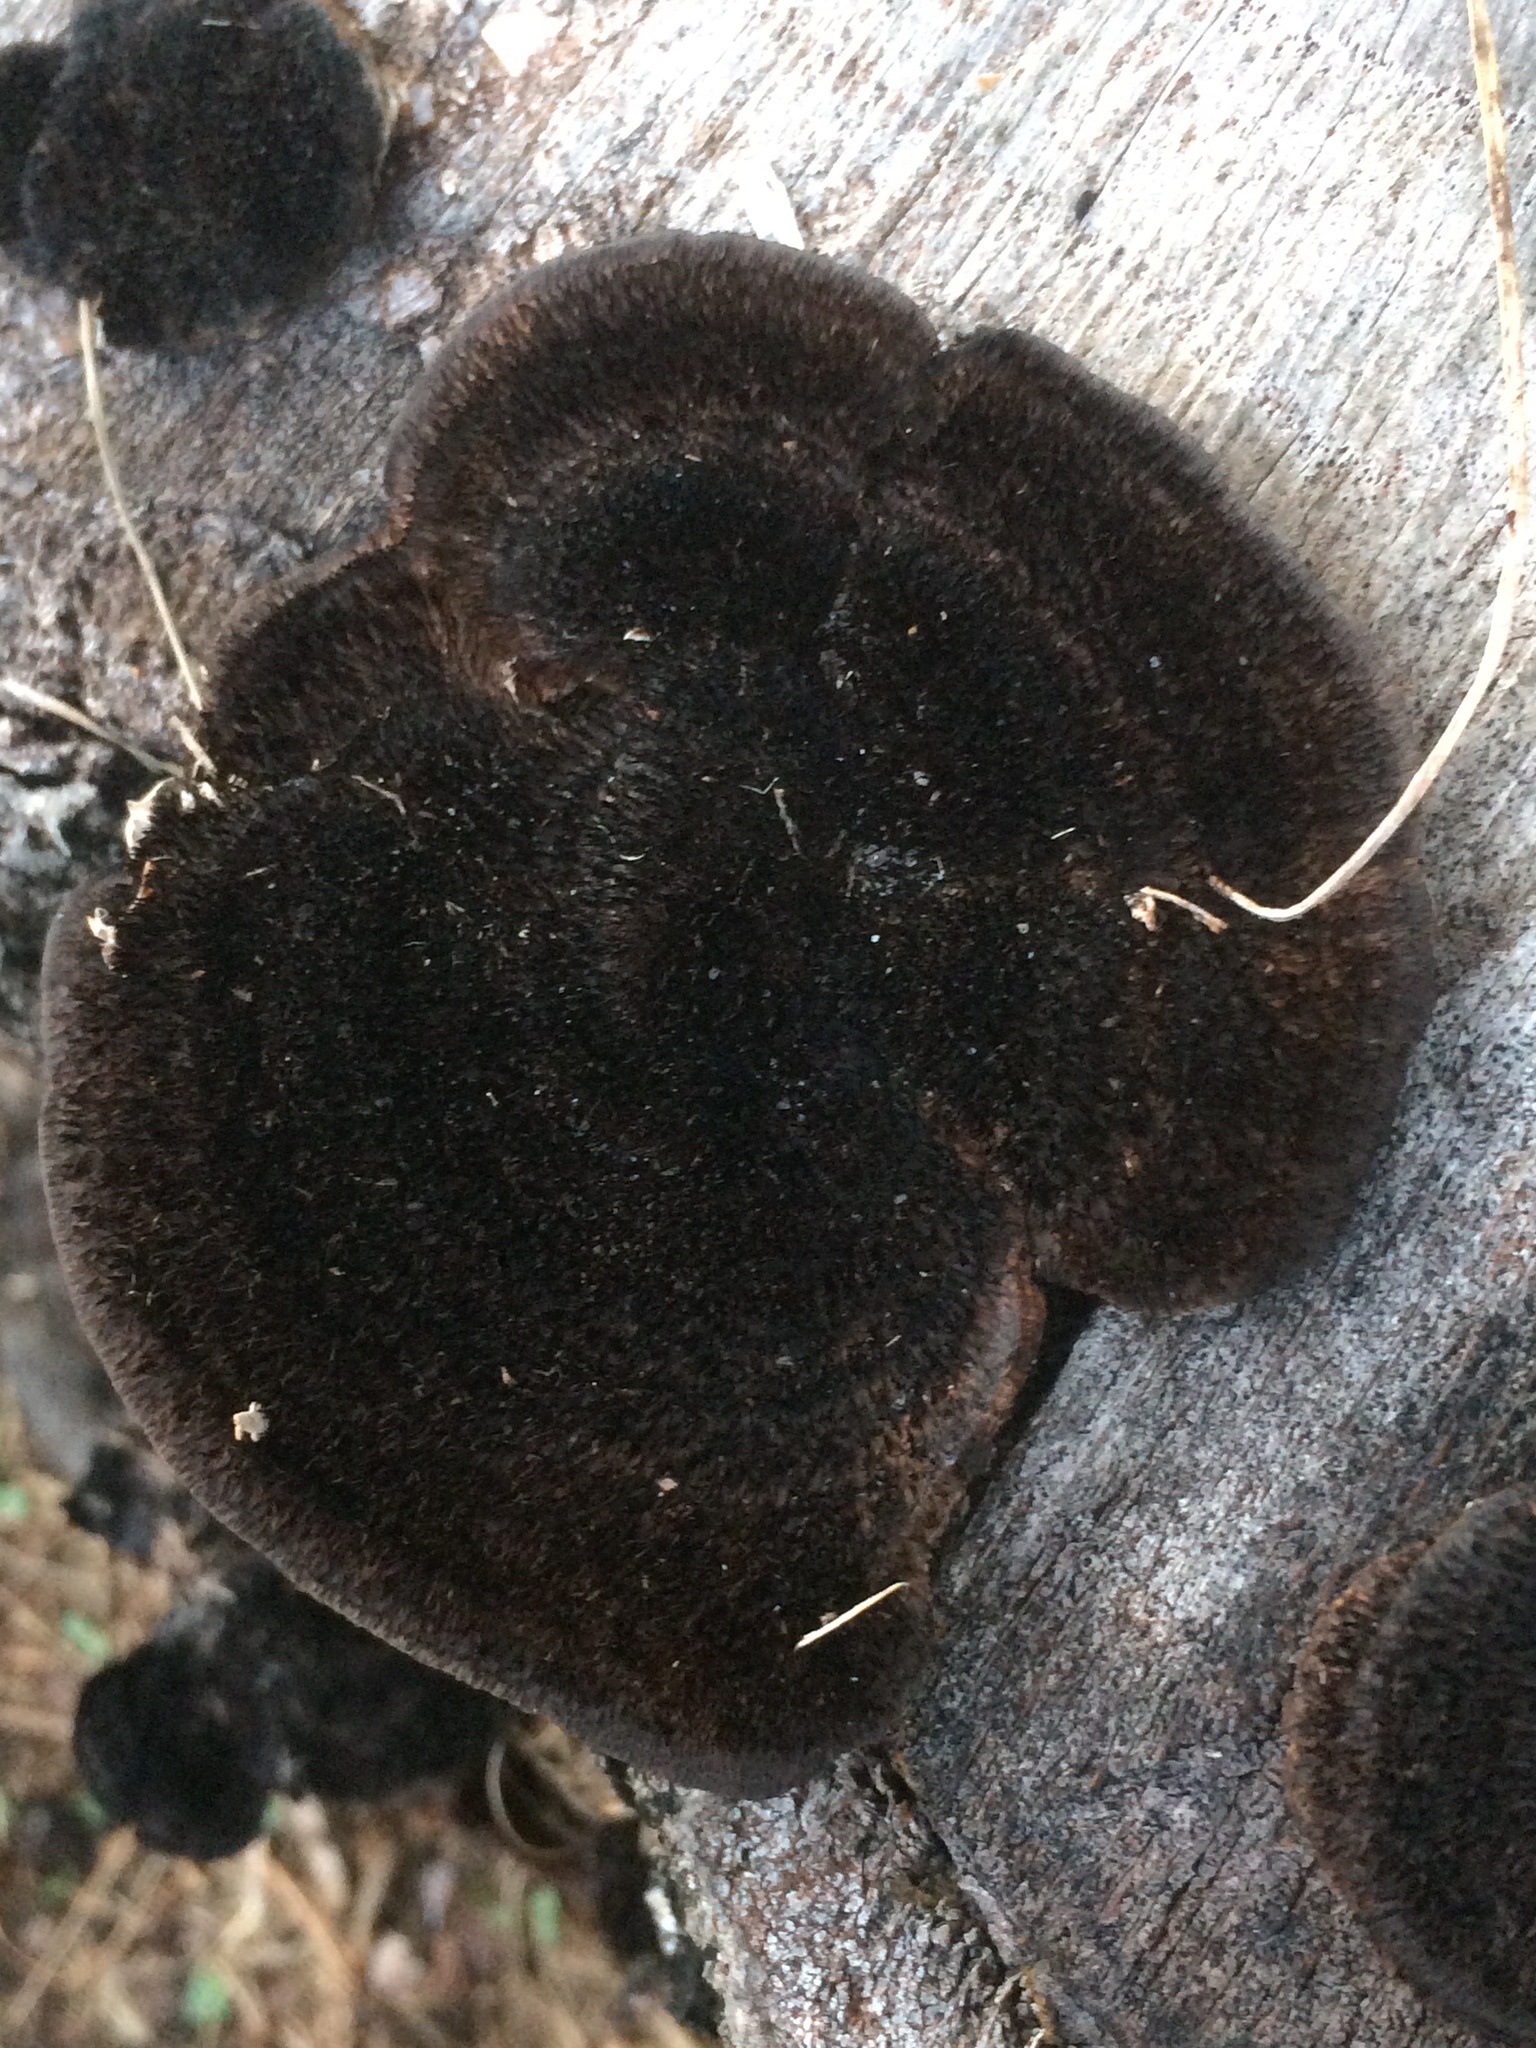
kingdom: Fungi
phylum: Basidiomycota
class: Agaricomycetes
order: Polyporales
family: Cerrenaceae
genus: Cerrena
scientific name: Cerrena hydnoides
